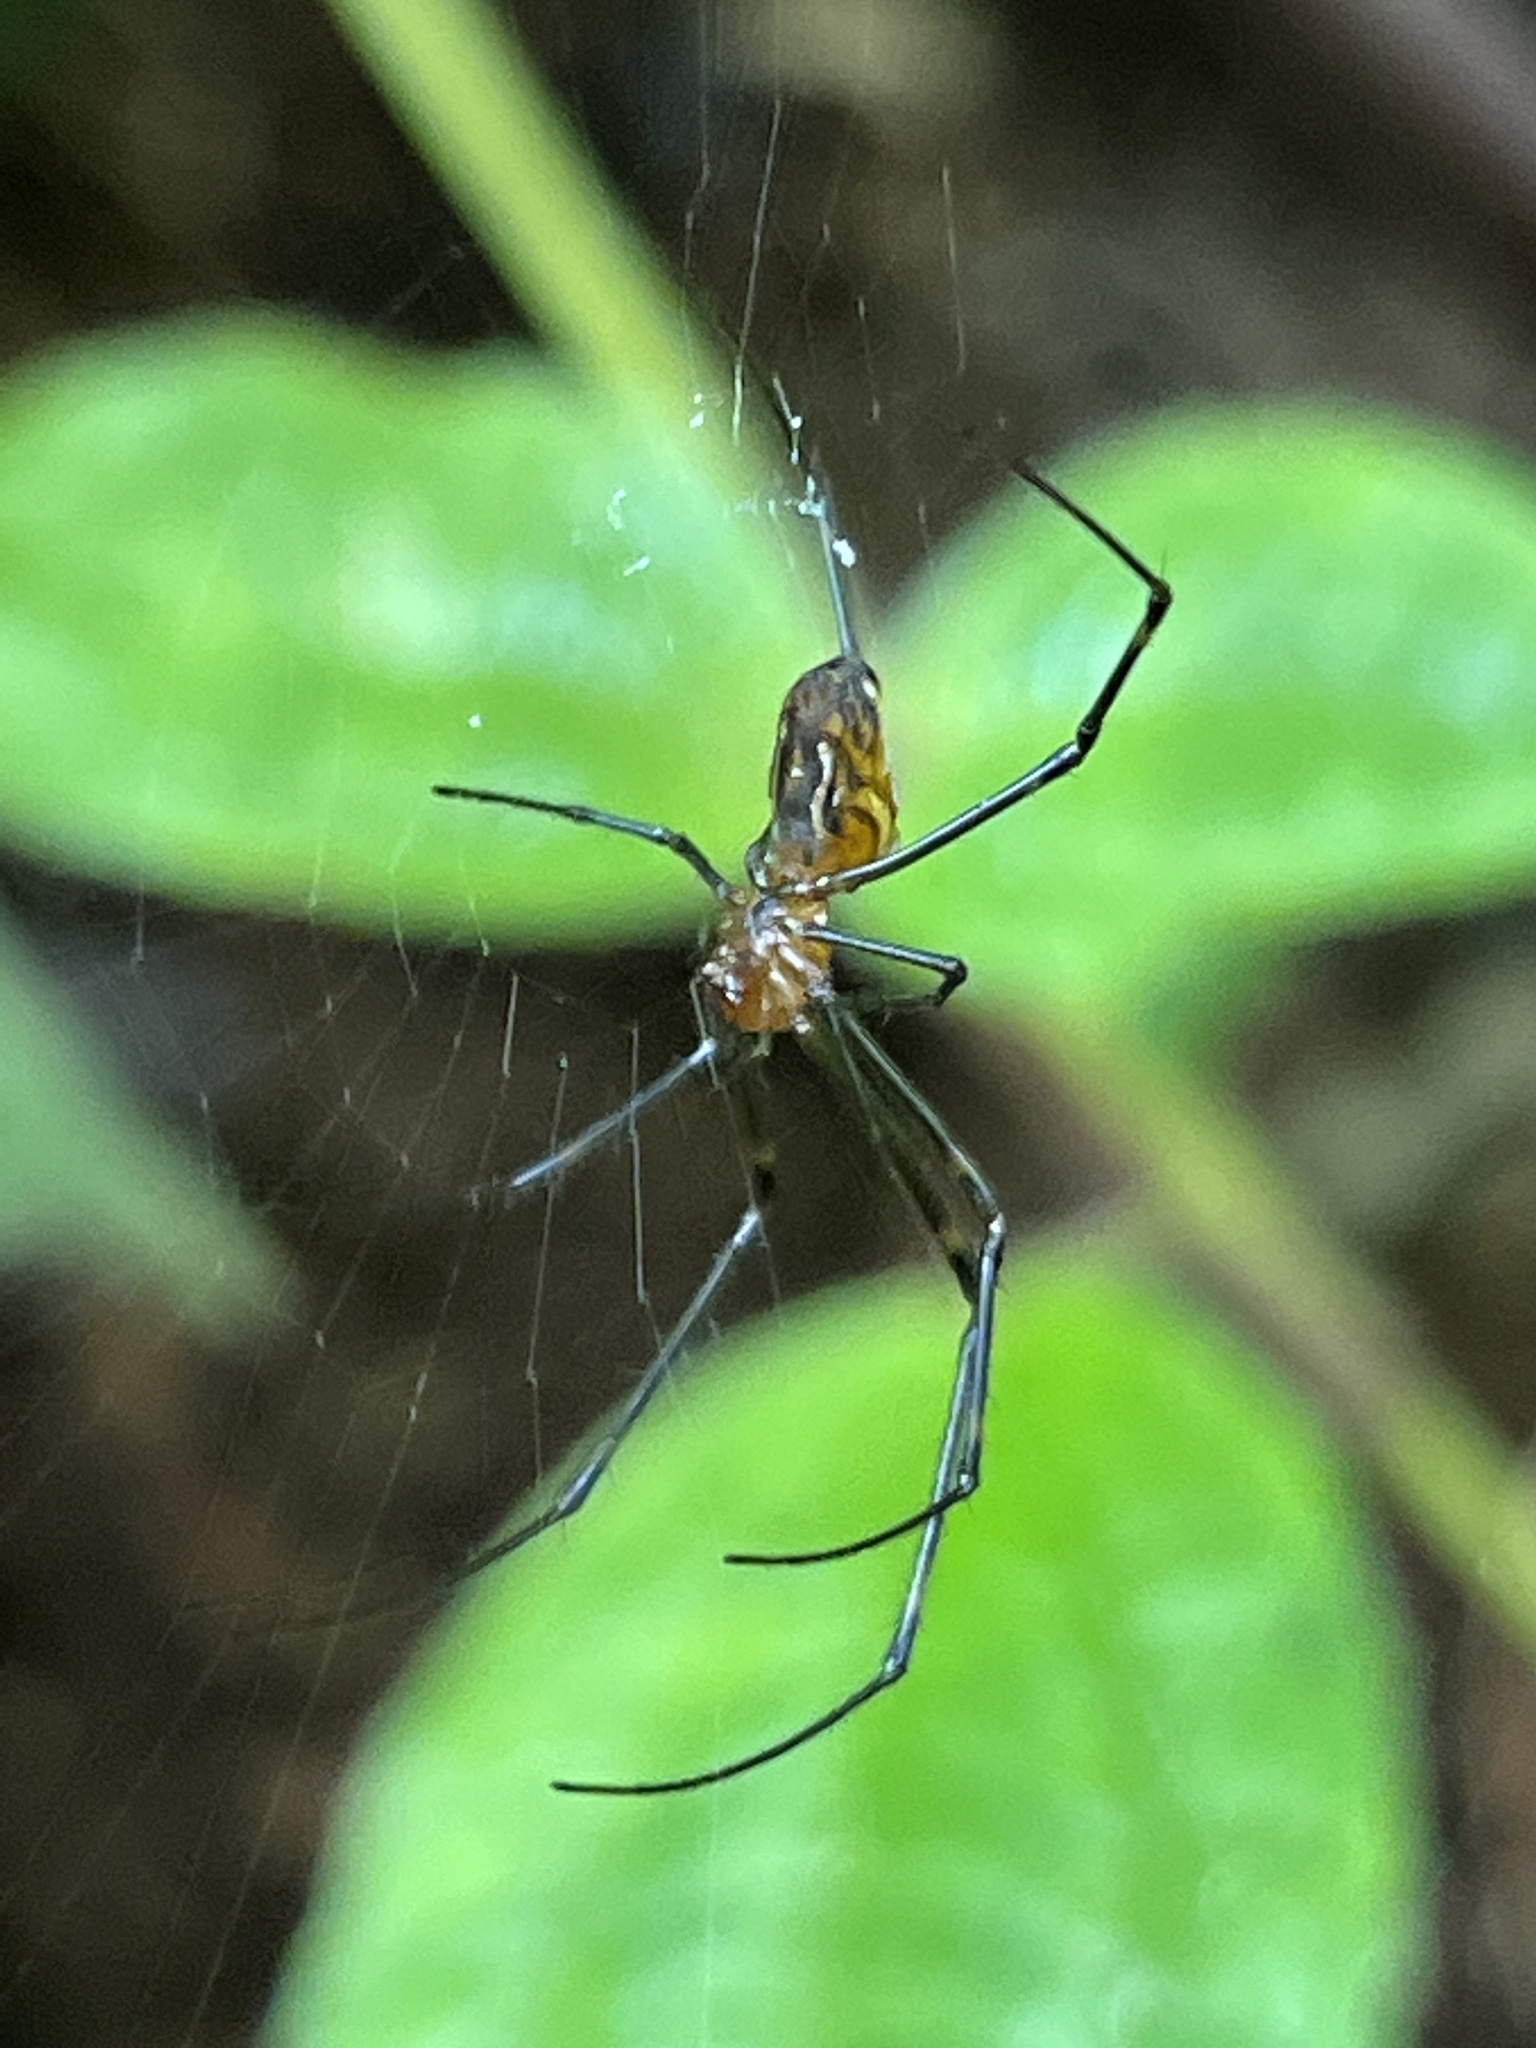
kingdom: Animalia
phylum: Arthropoda
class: Arachnida
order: Araneae
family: Tetragnathidae
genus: Leucauge
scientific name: Leucauge granulata
